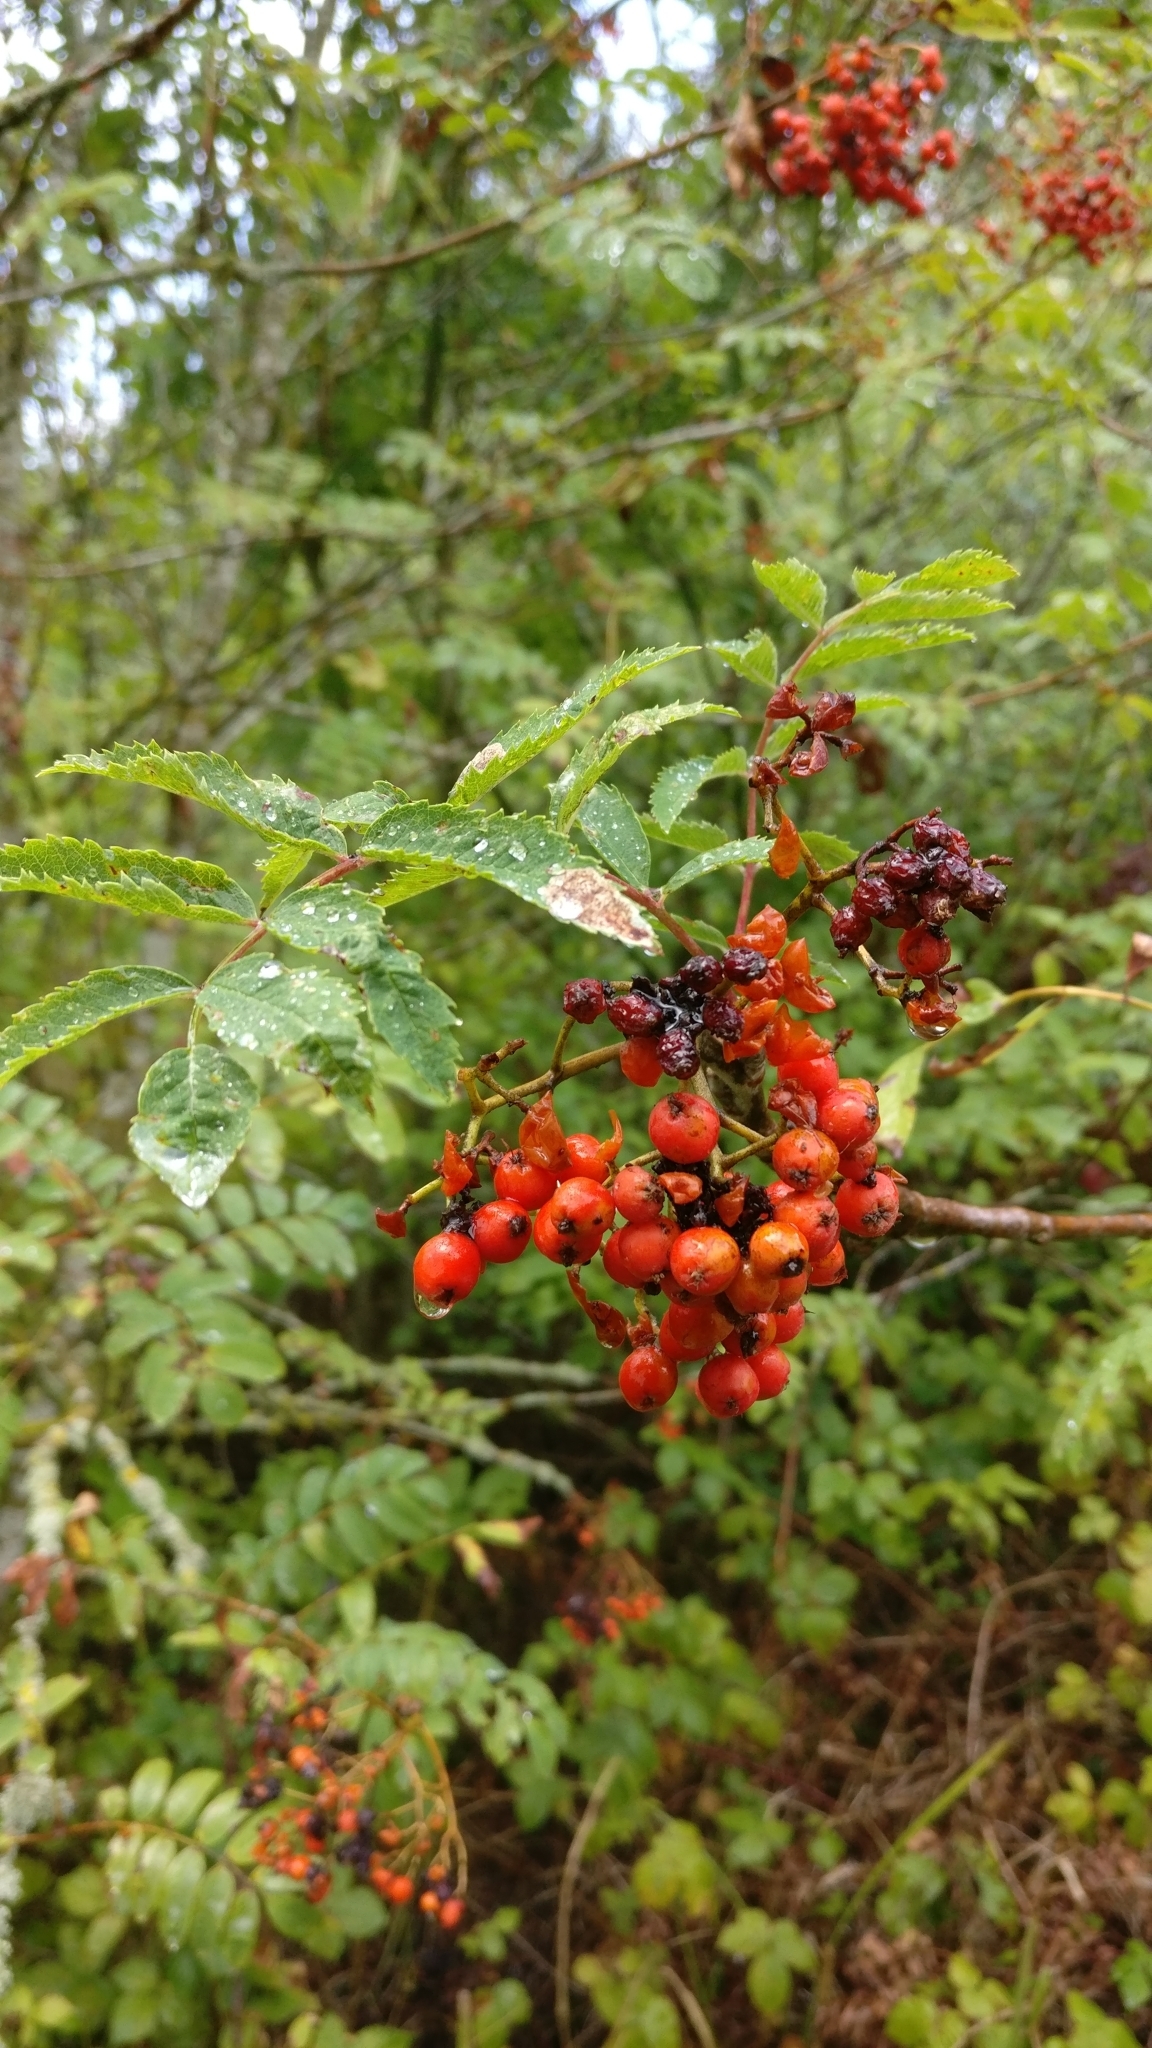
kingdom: Plantae
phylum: Tracheophyta
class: Magnoliopsida
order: Rosales
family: Rosaceae
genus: Sorbus
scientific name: Sorbus aucuparia
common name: Rowan
